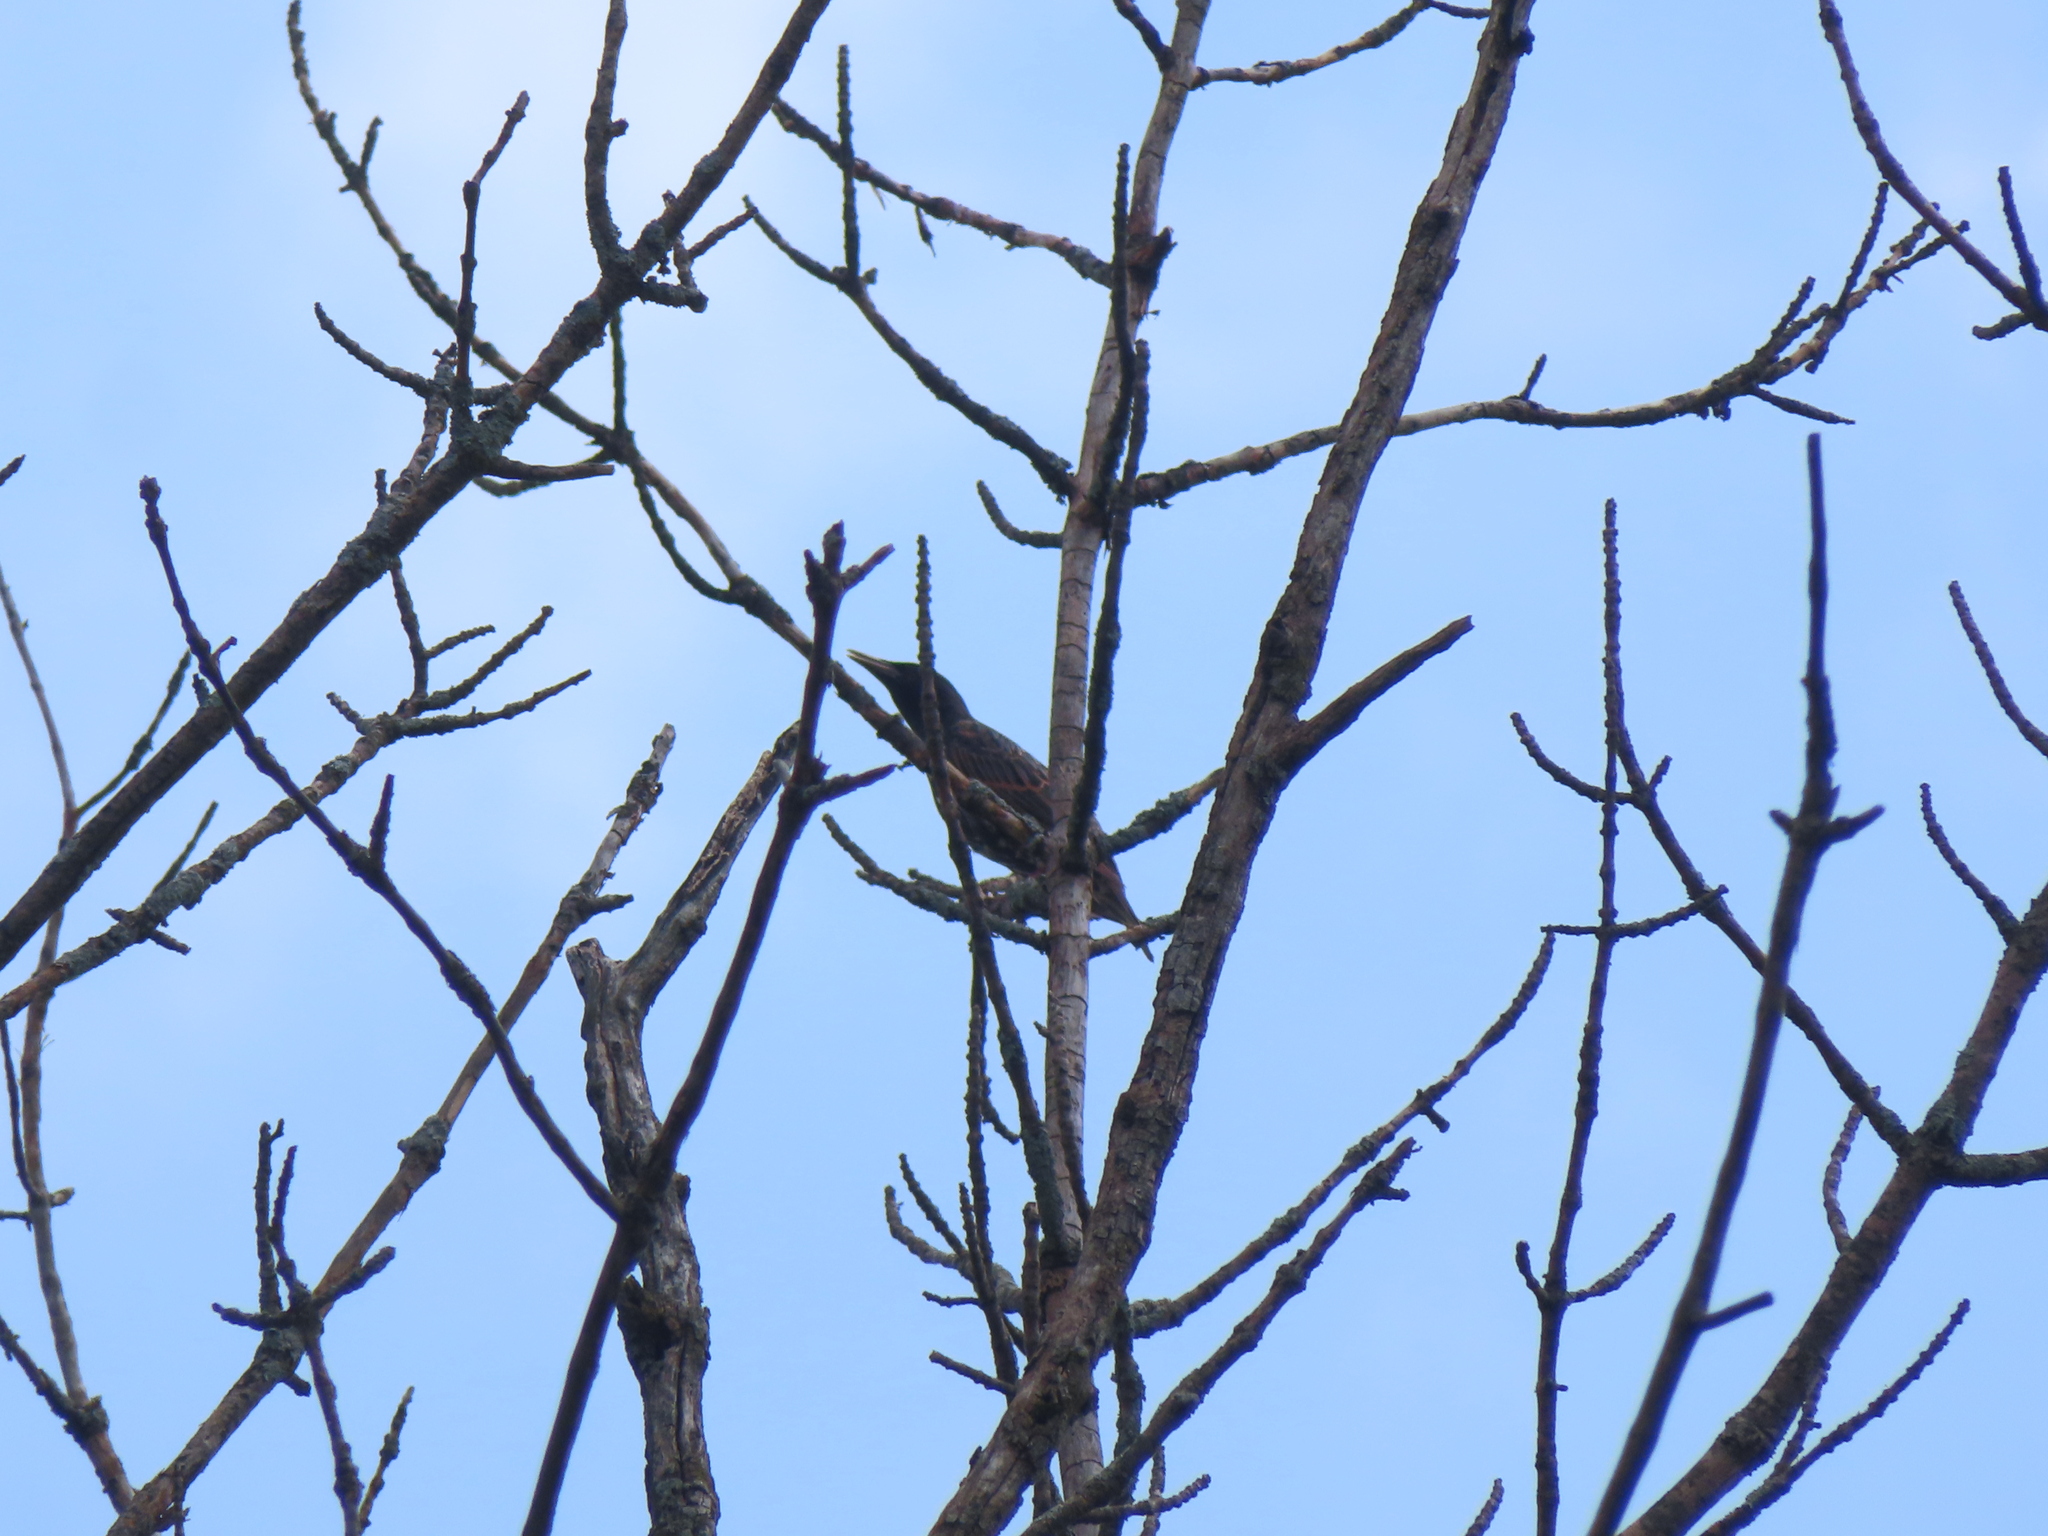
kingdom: Animalia
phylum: Chordata
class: Aves
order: Passeriformes
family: Sturnidae
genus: Sturnus
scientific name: Sturnus vulgaris
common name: Common starling
